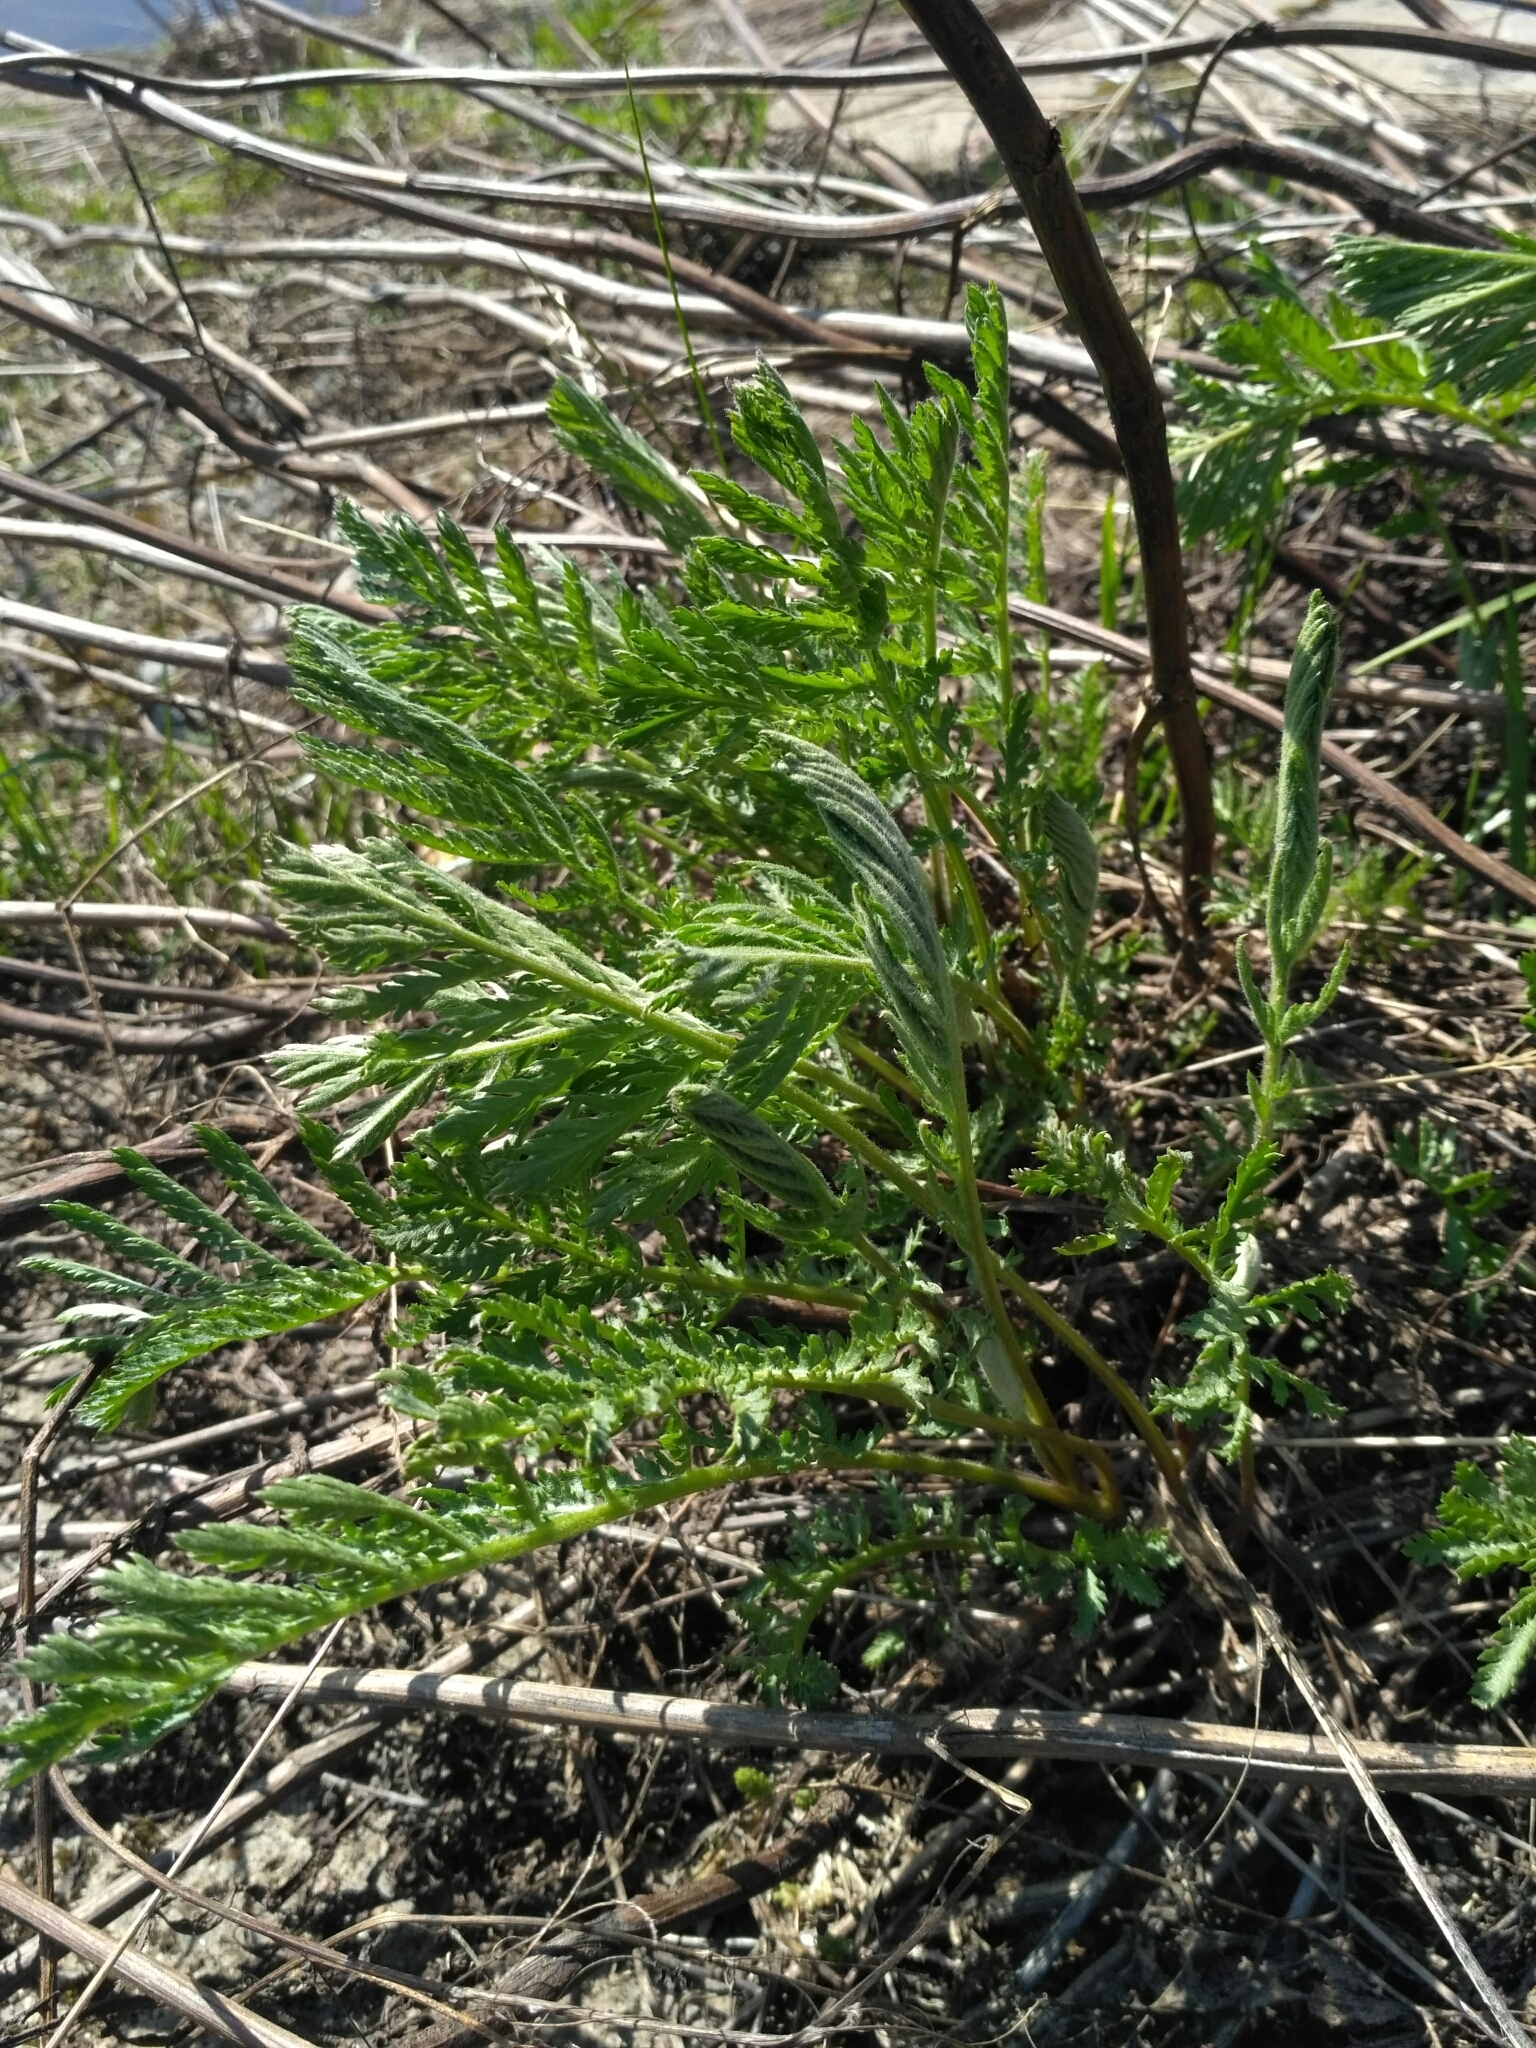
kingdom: Plantae
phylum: Tracheophyta
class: Magnoliopsida
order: Asterales
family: Asteraceae
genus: Tanacetum
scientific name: Tanacetum vulgare
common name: Common tansy
